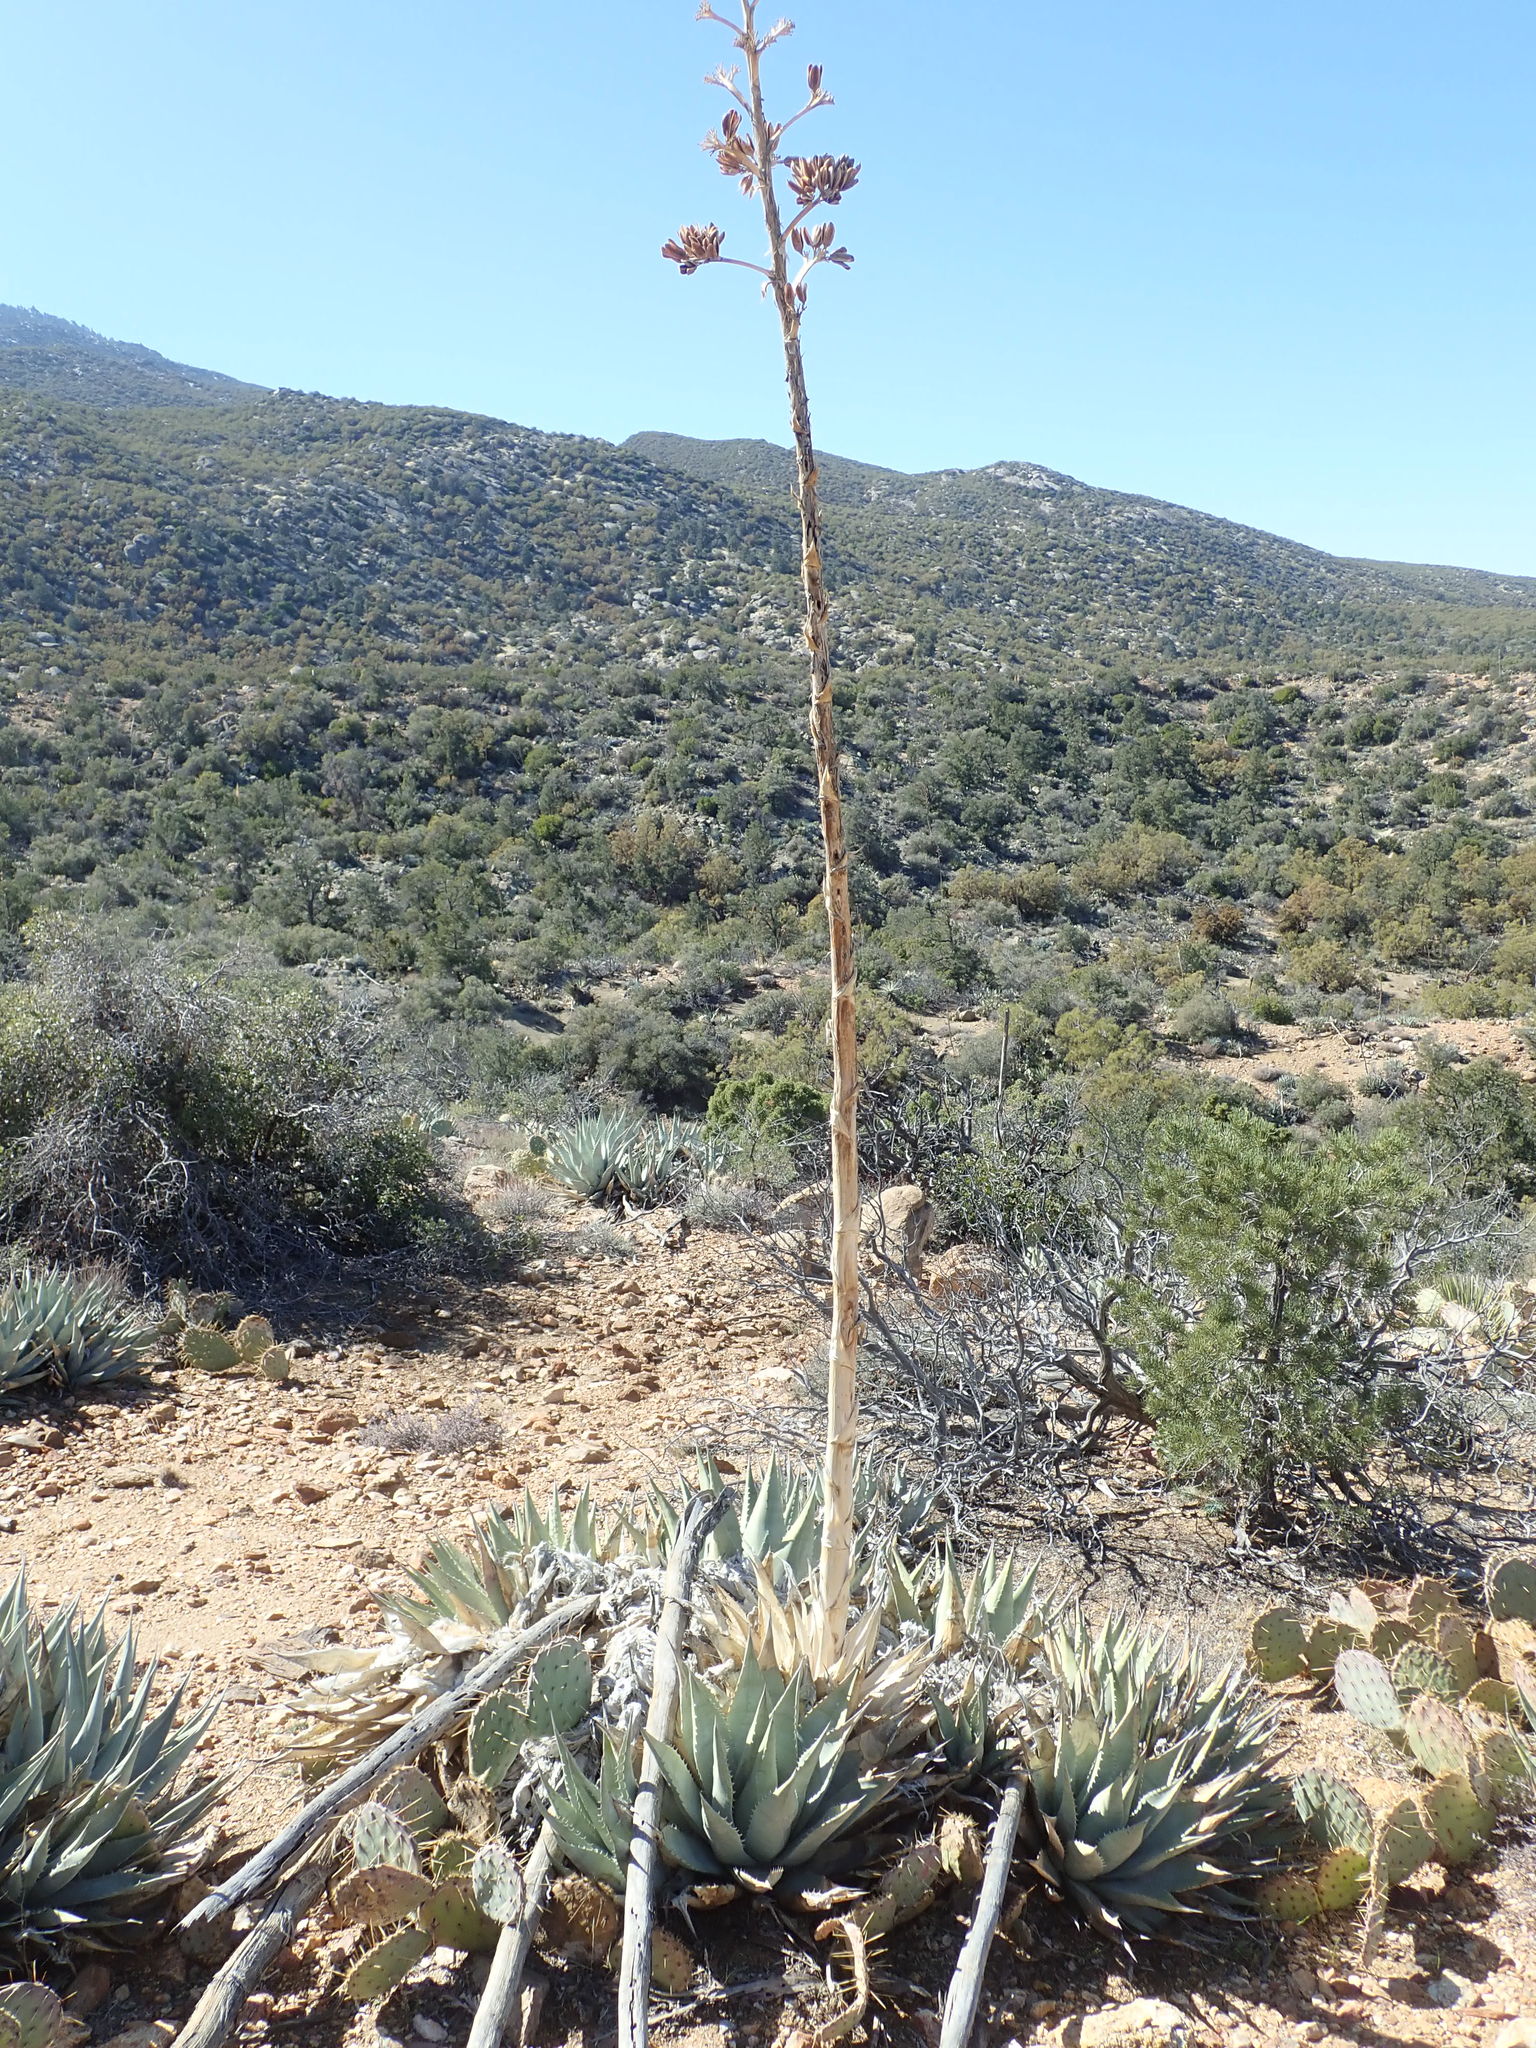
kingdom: Plantae
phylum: Tracheophyta
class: Liliopsida
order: Asparagales
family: Asparagaceae
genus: Agave
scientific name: Agave deserti
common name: Desert agave
